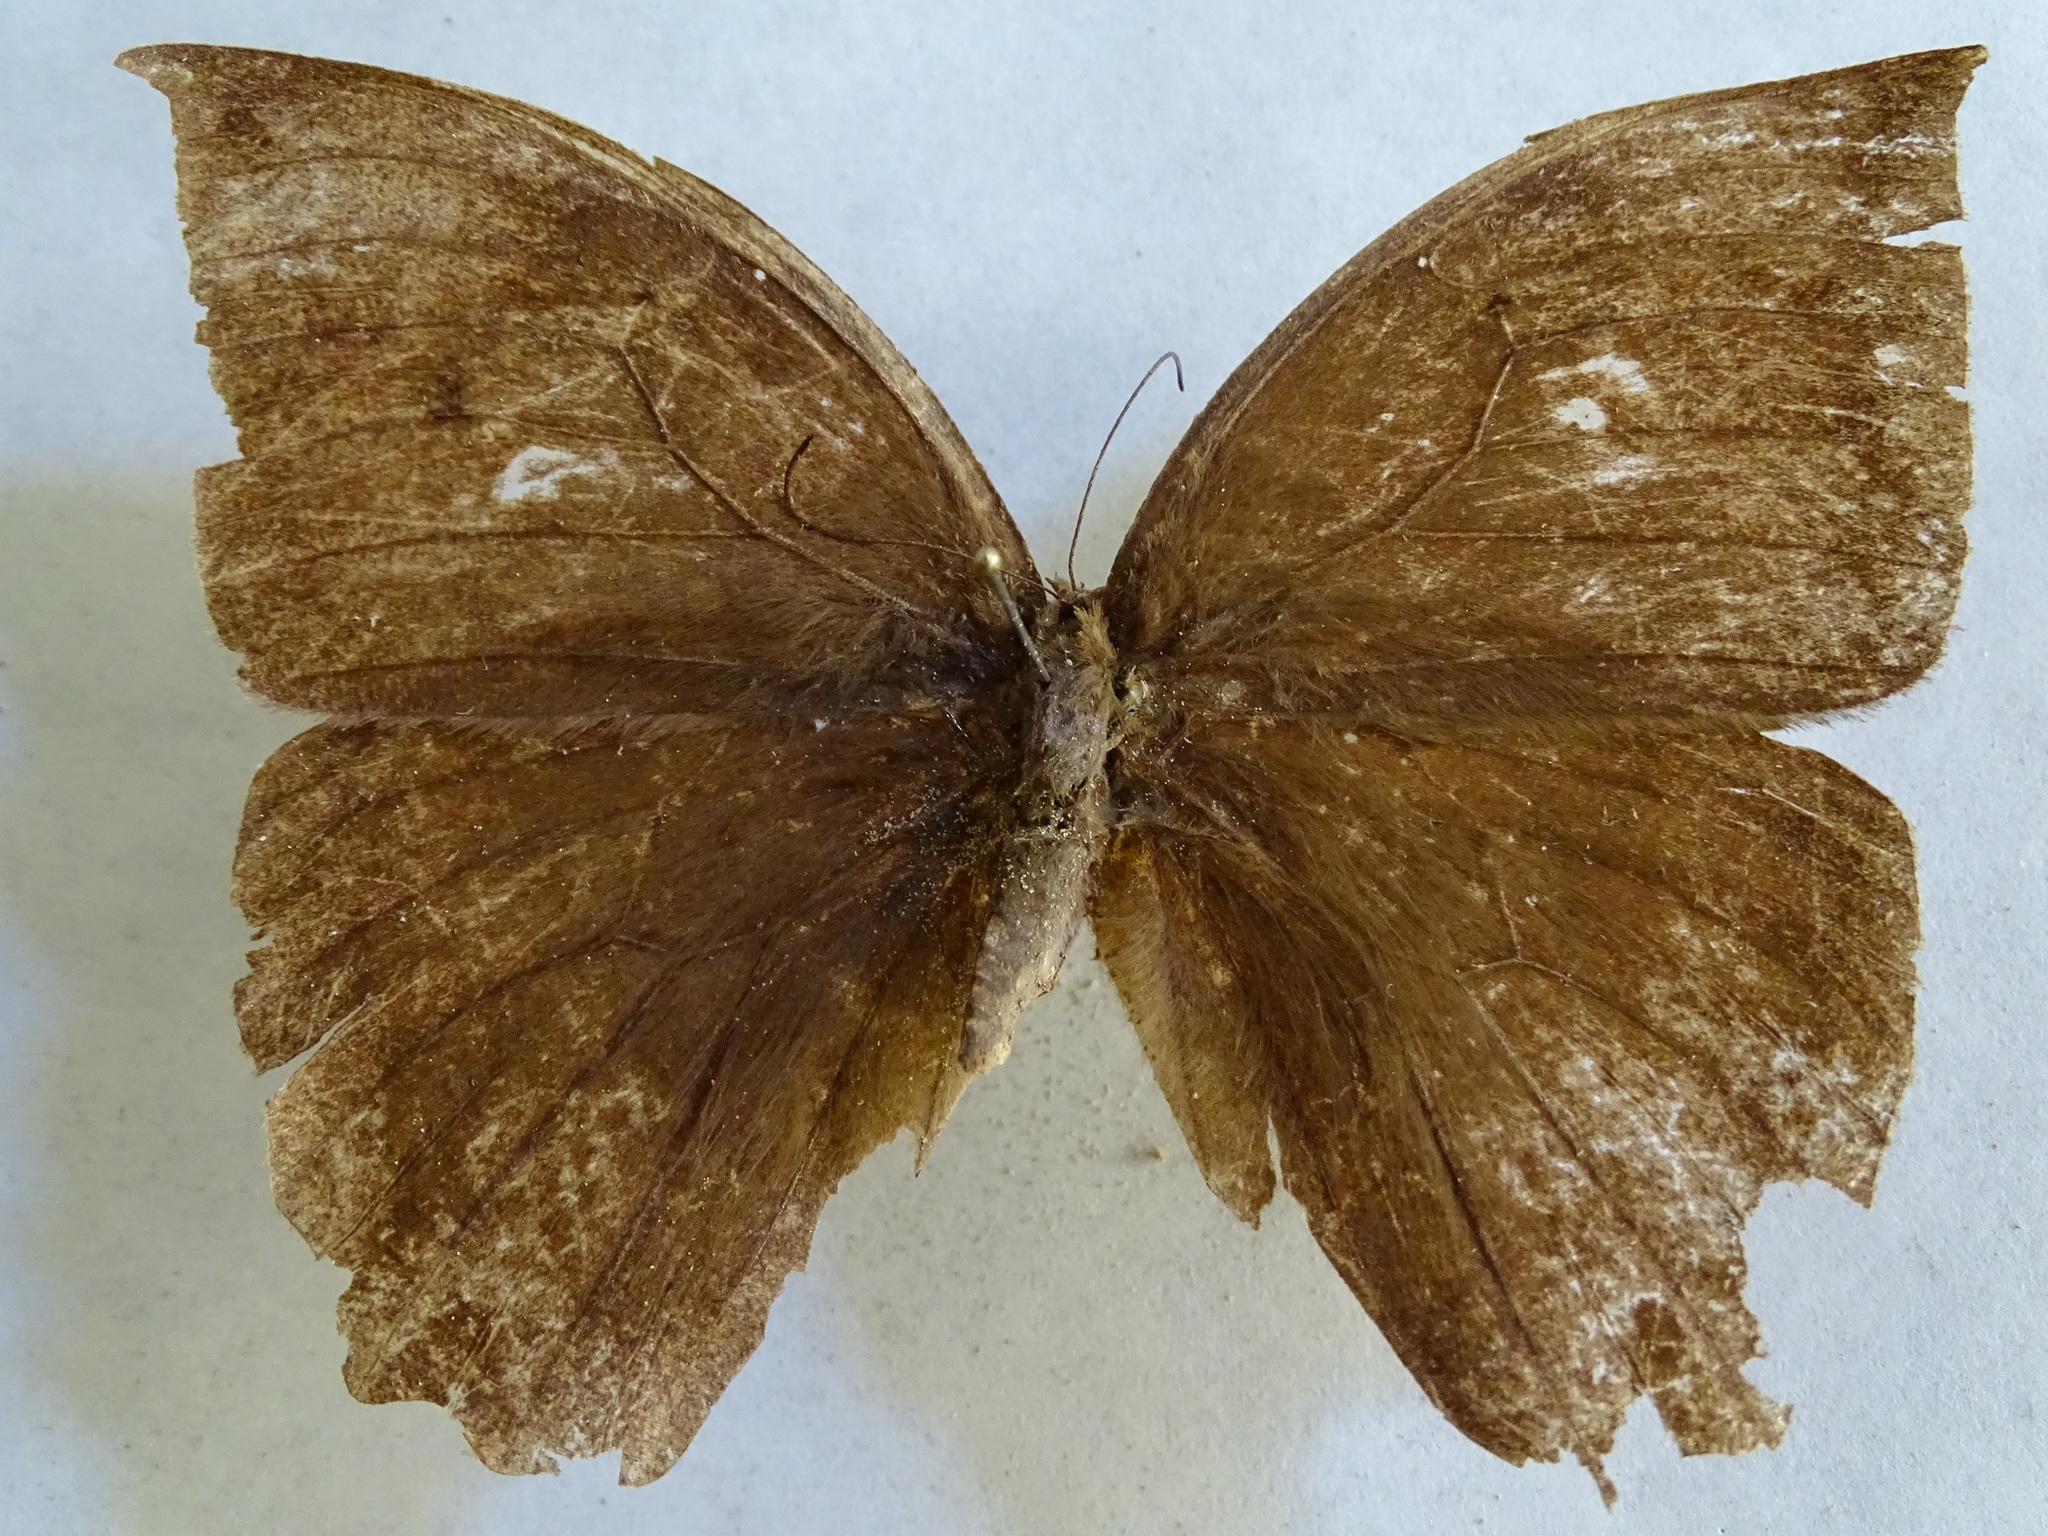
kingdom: Animalia
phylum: Arthropoda
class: Insecta
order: Lepidoptera
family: Nymphalidae
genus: Taygetis
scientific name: Taygetis mermeria
